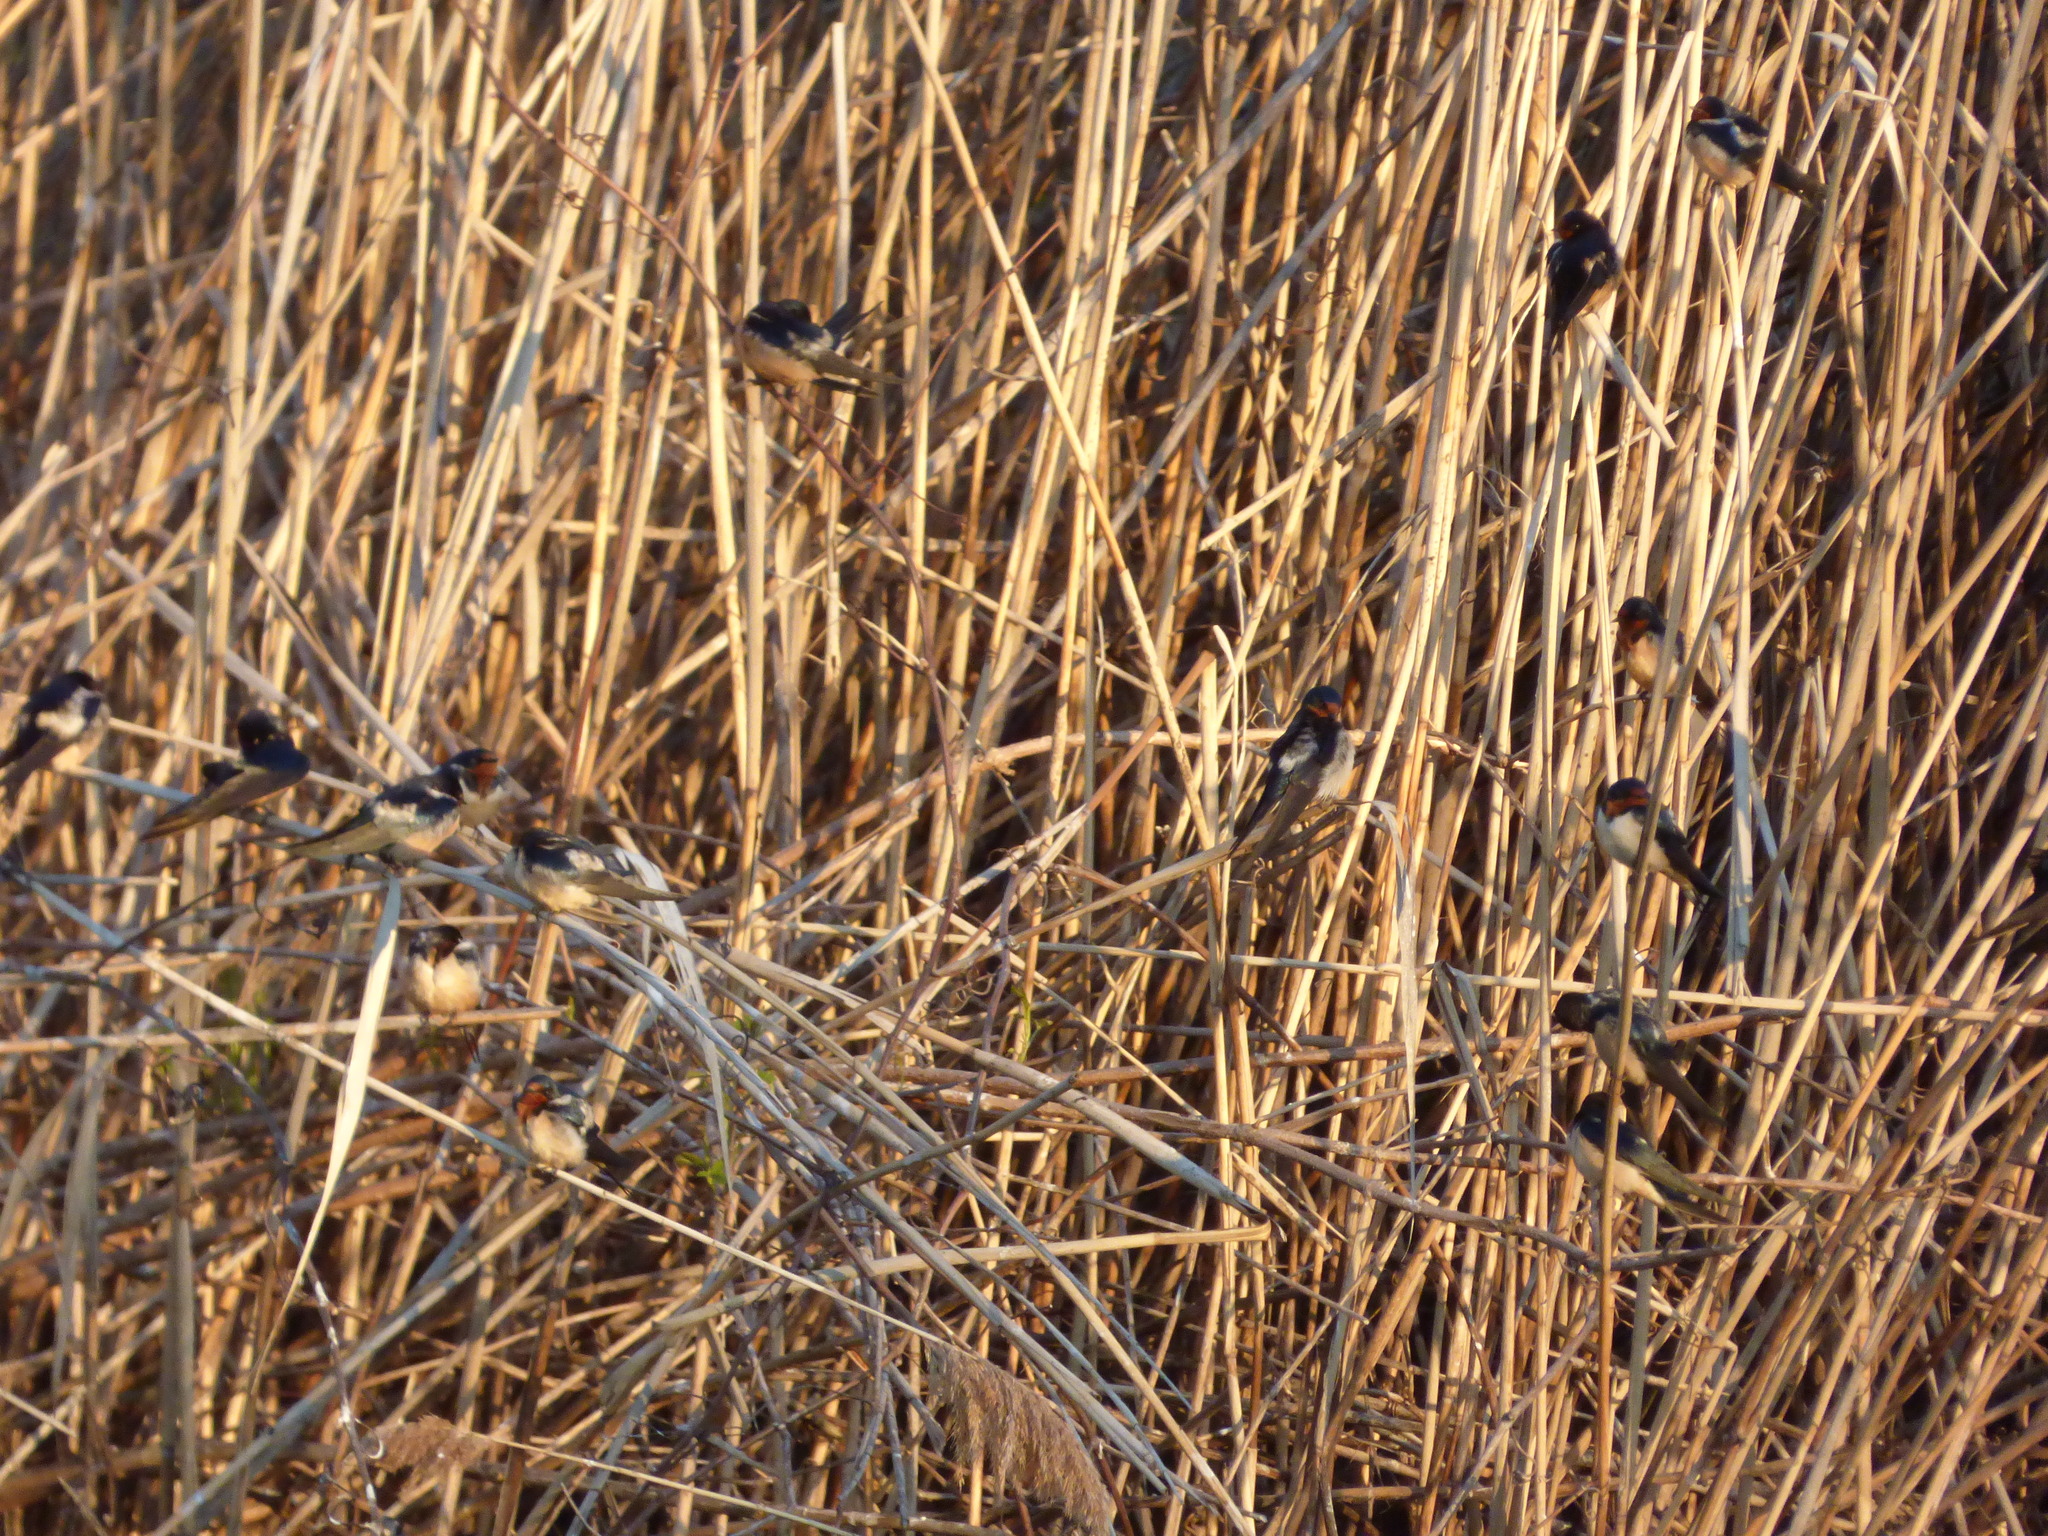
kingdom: Animalia
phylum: Chordata
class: Aves
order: Passeriformes
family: Hirundinidae
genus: Hirundo
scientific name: Hirundo rustica
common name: Barn swallow
